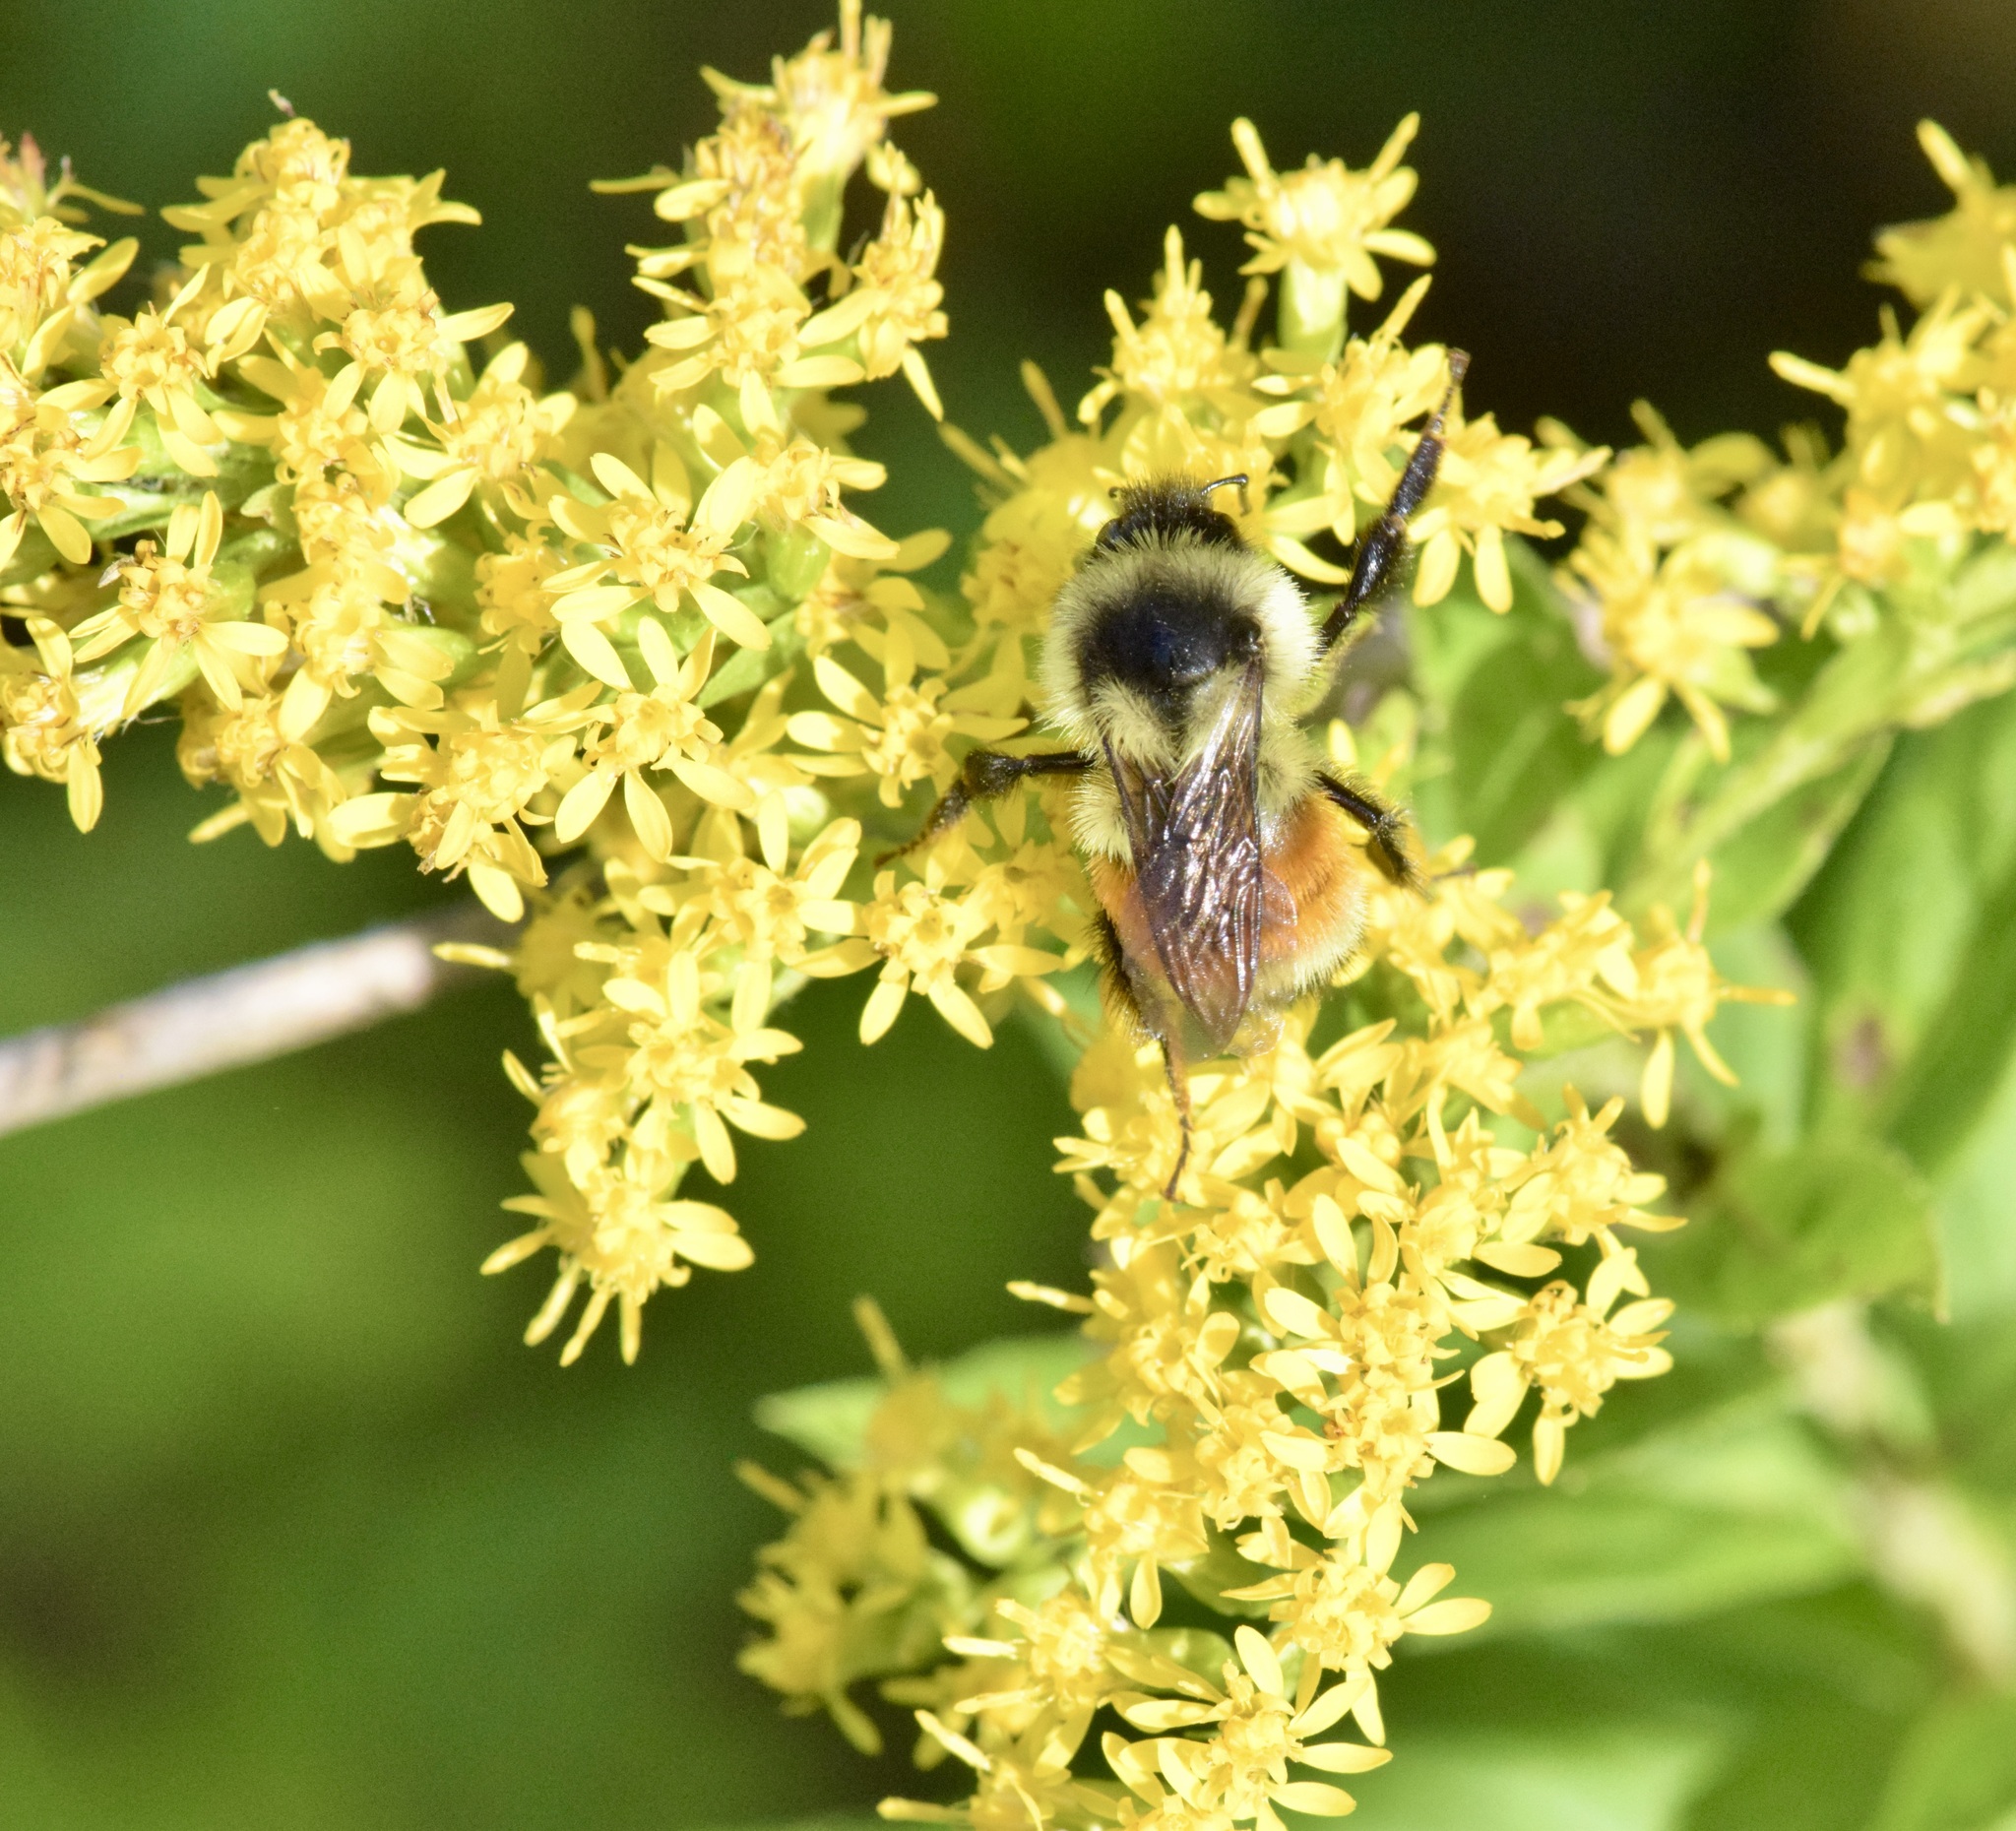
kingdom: Animalia
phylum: Arthropoda
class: Insecta
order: Hymenoptera
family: Apidae
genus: Bombus
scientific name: Bombus ternarius
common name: Tri-colored bumble bee
